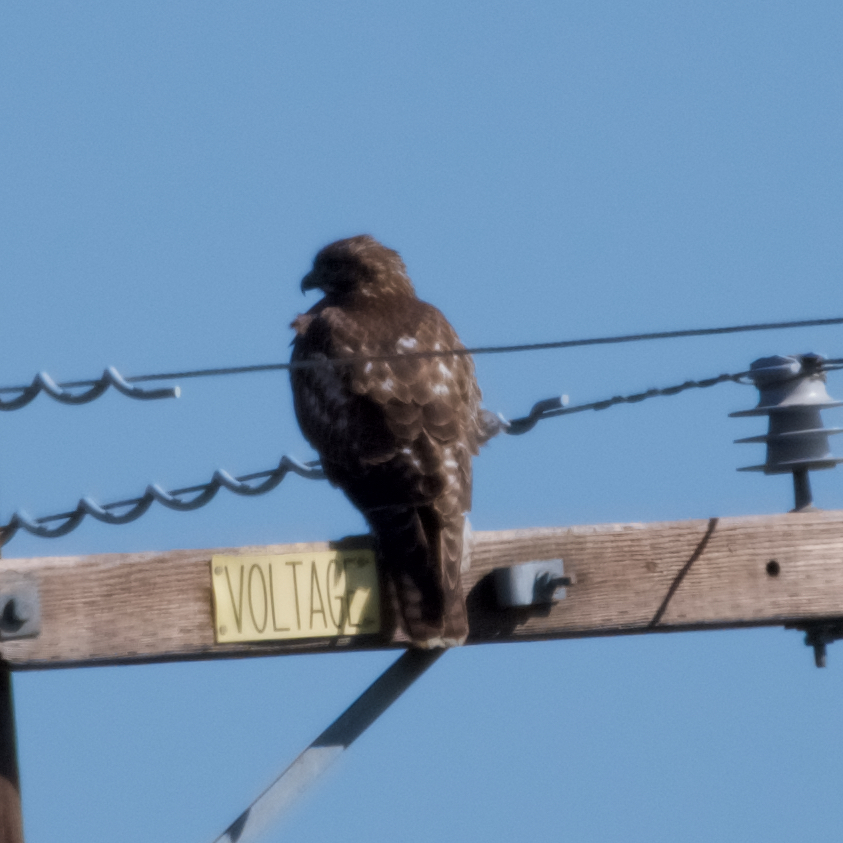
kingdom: Animalia
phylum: Chordata
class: Aves
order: Accipitriformes
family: Accipitridae
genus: Buteo
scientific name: Buteo jamaicensis
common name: Red-tailed hawk
